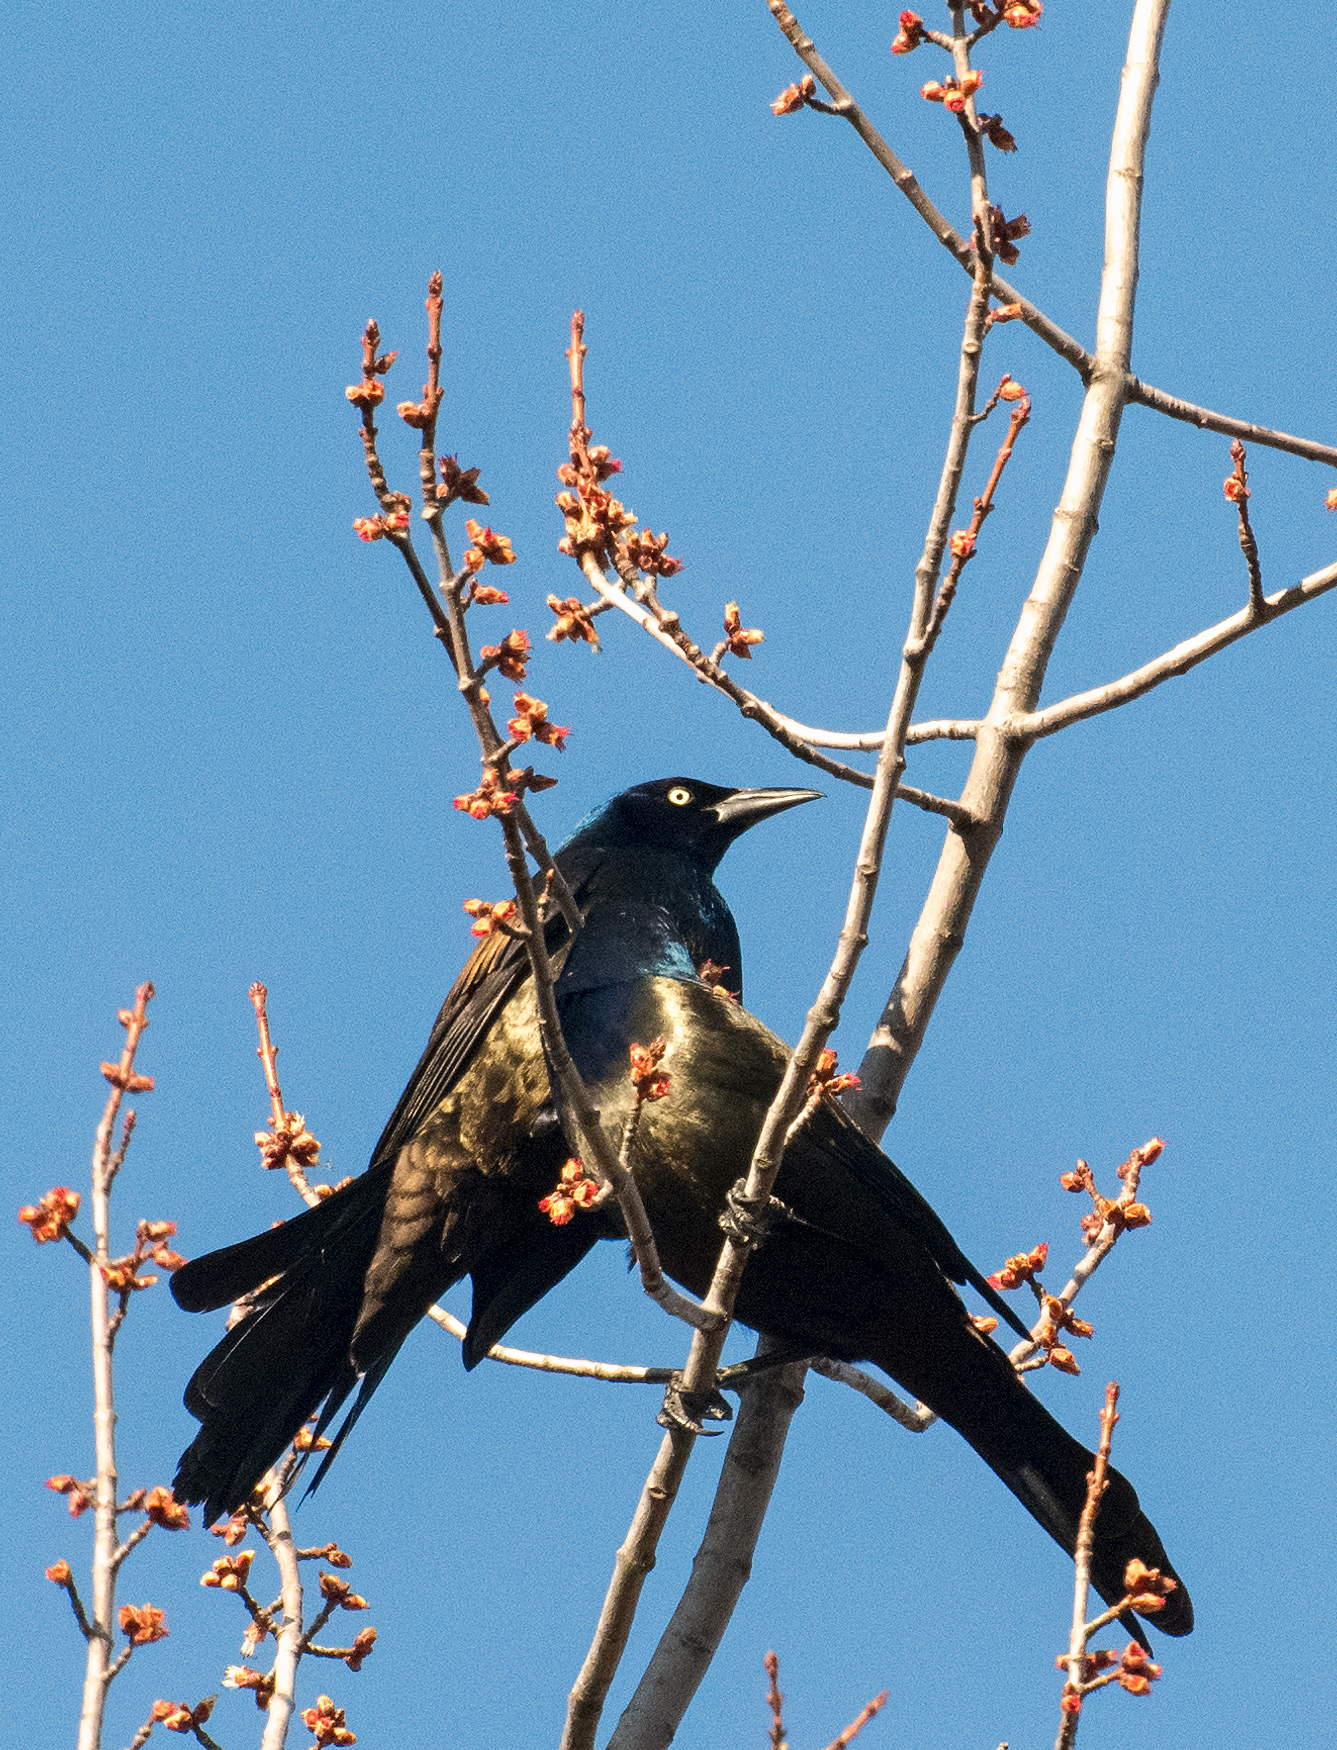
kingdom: Animalia
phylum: Chordata
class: Aves
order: Passeriformes
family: Icteridae
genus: Quiscalus
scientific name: Quiscalus quiscula
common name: Common grackle
